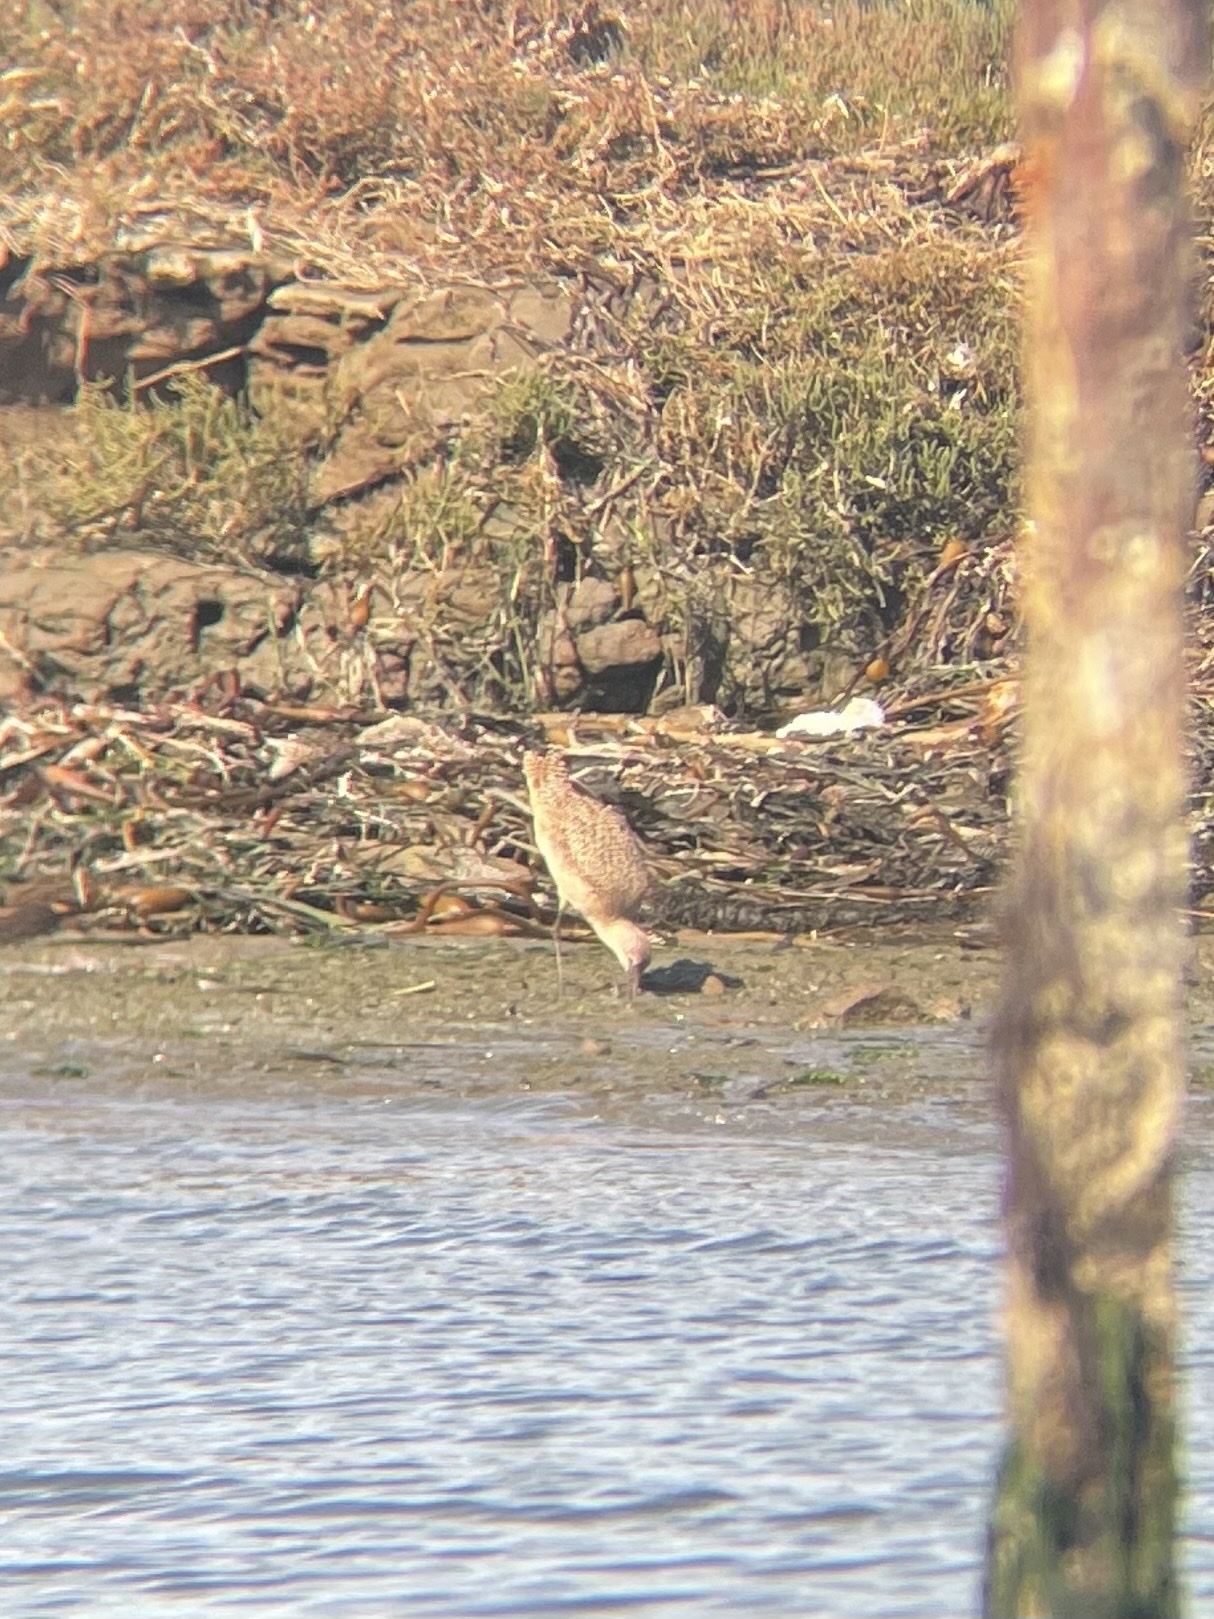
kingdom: Animalia
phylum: Chordata
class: Aves
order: Charadriiformes
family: Scolopacidae
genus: Limosa
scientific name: Limosa fedoa
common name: Marbled godwit
